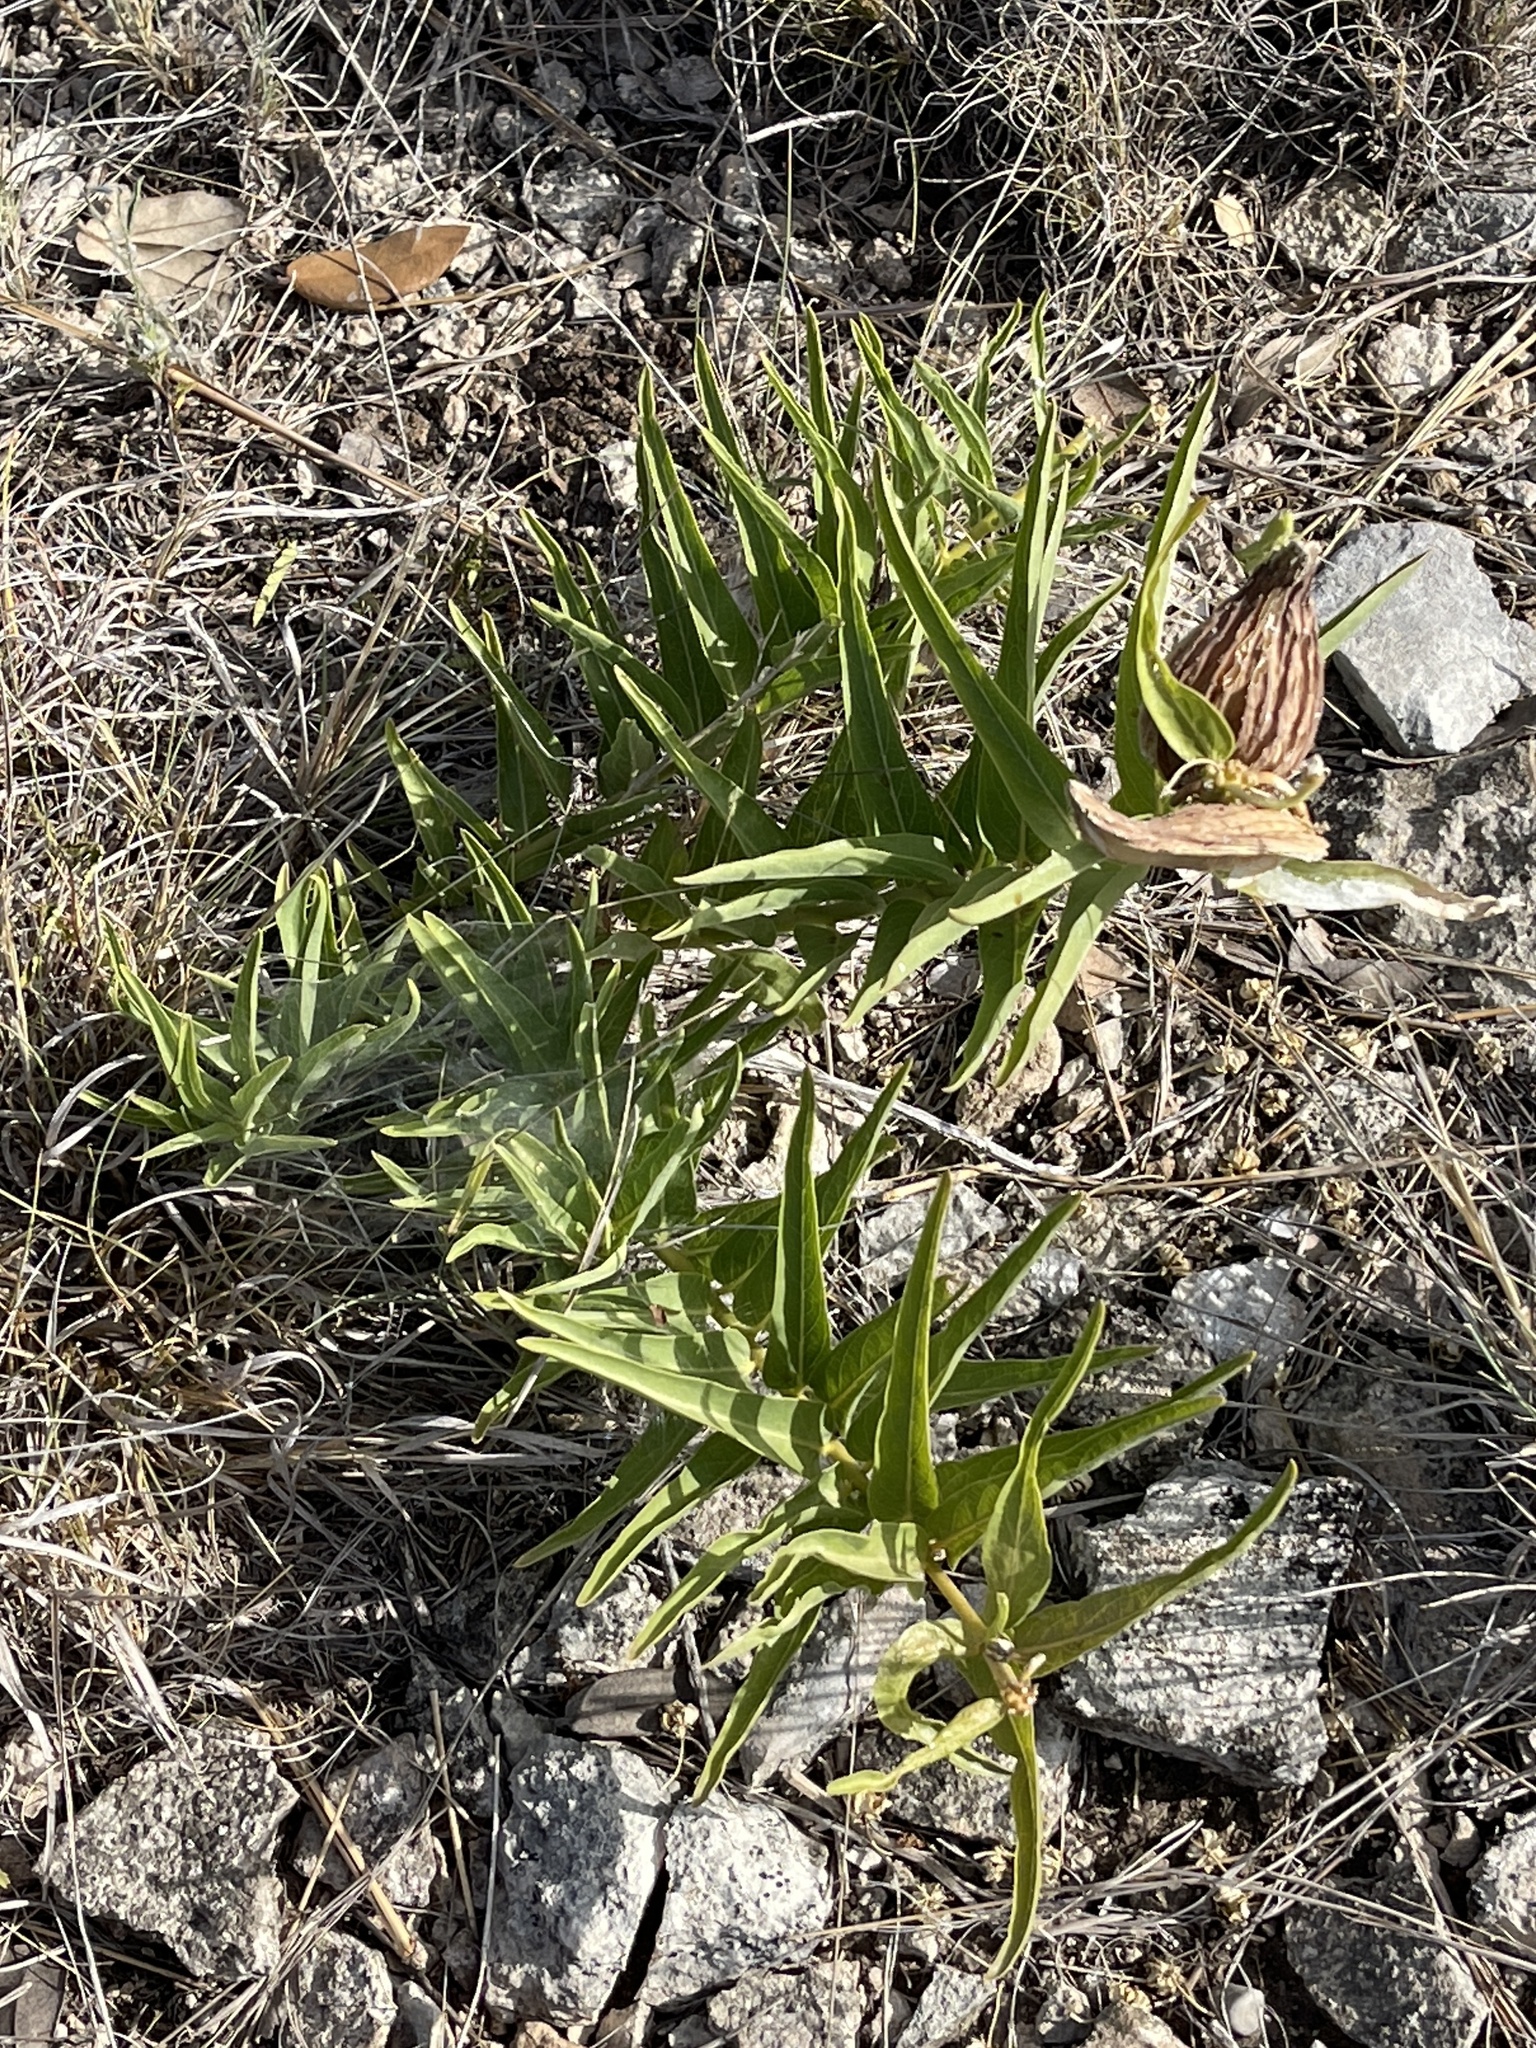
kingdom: Plantae
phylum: Tracheophyta
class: Magnoliopsida
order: Gentianales
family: Apocynaceae
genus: Asclepias
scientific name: Asclepias asperula
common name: Antelope horns
